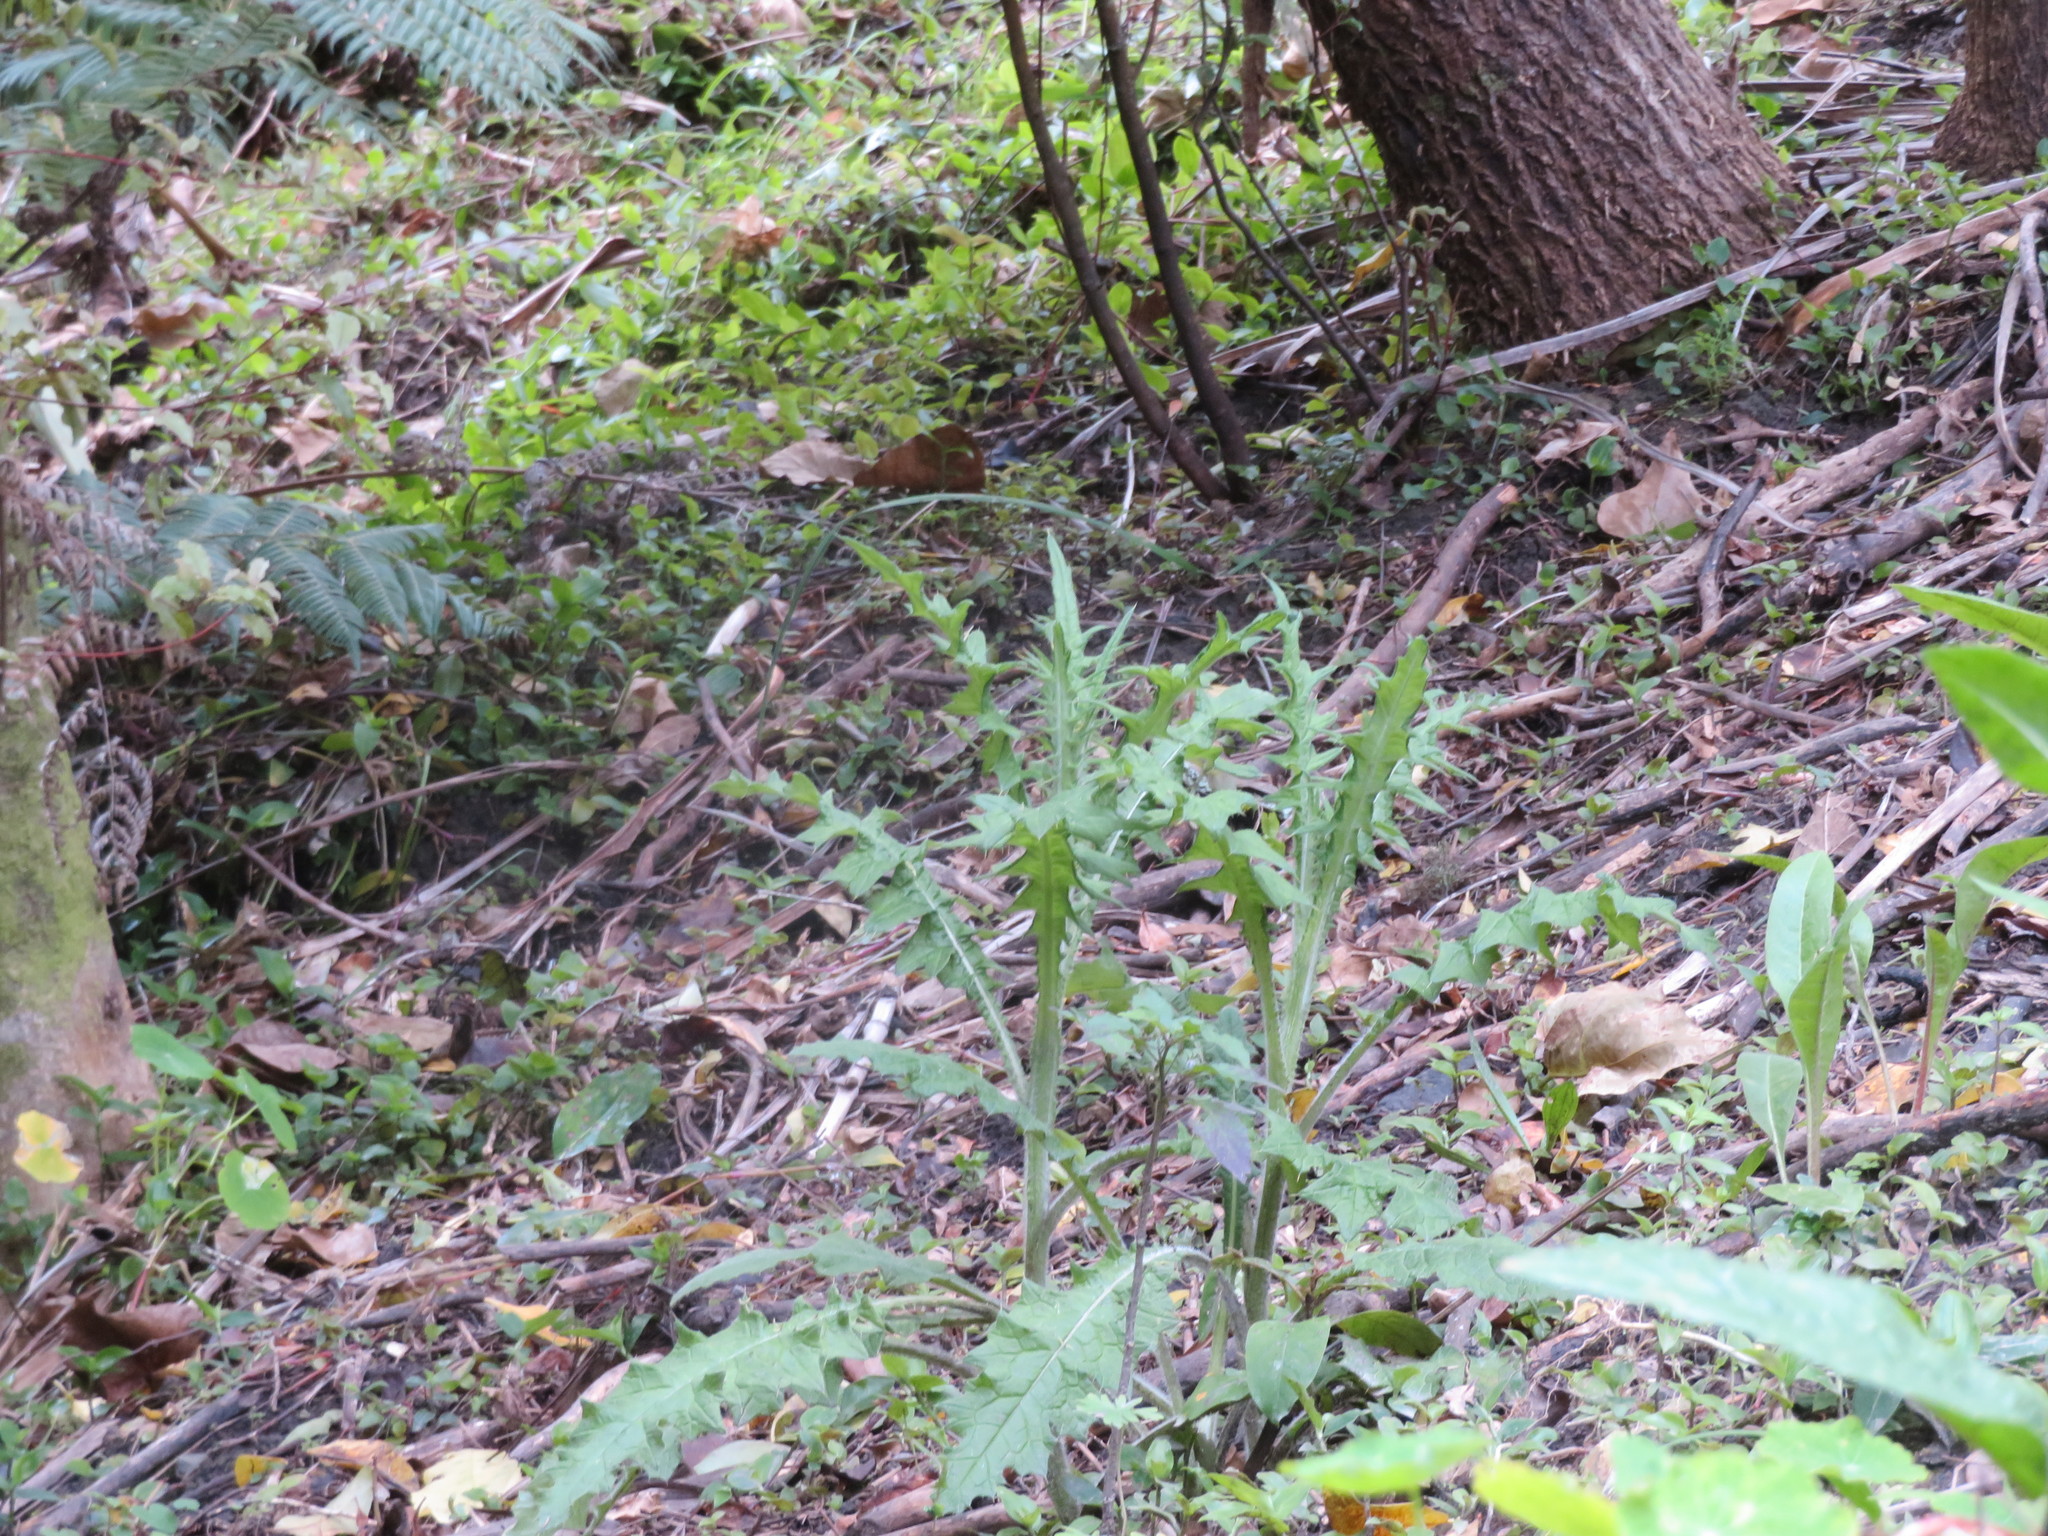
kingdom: Plantae
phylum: Tracheophyta
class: Magnoliopsida
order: Asterales
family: Asteraceae
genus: Cirsium
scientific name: Cirsium vulgare
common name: Bull thistle
